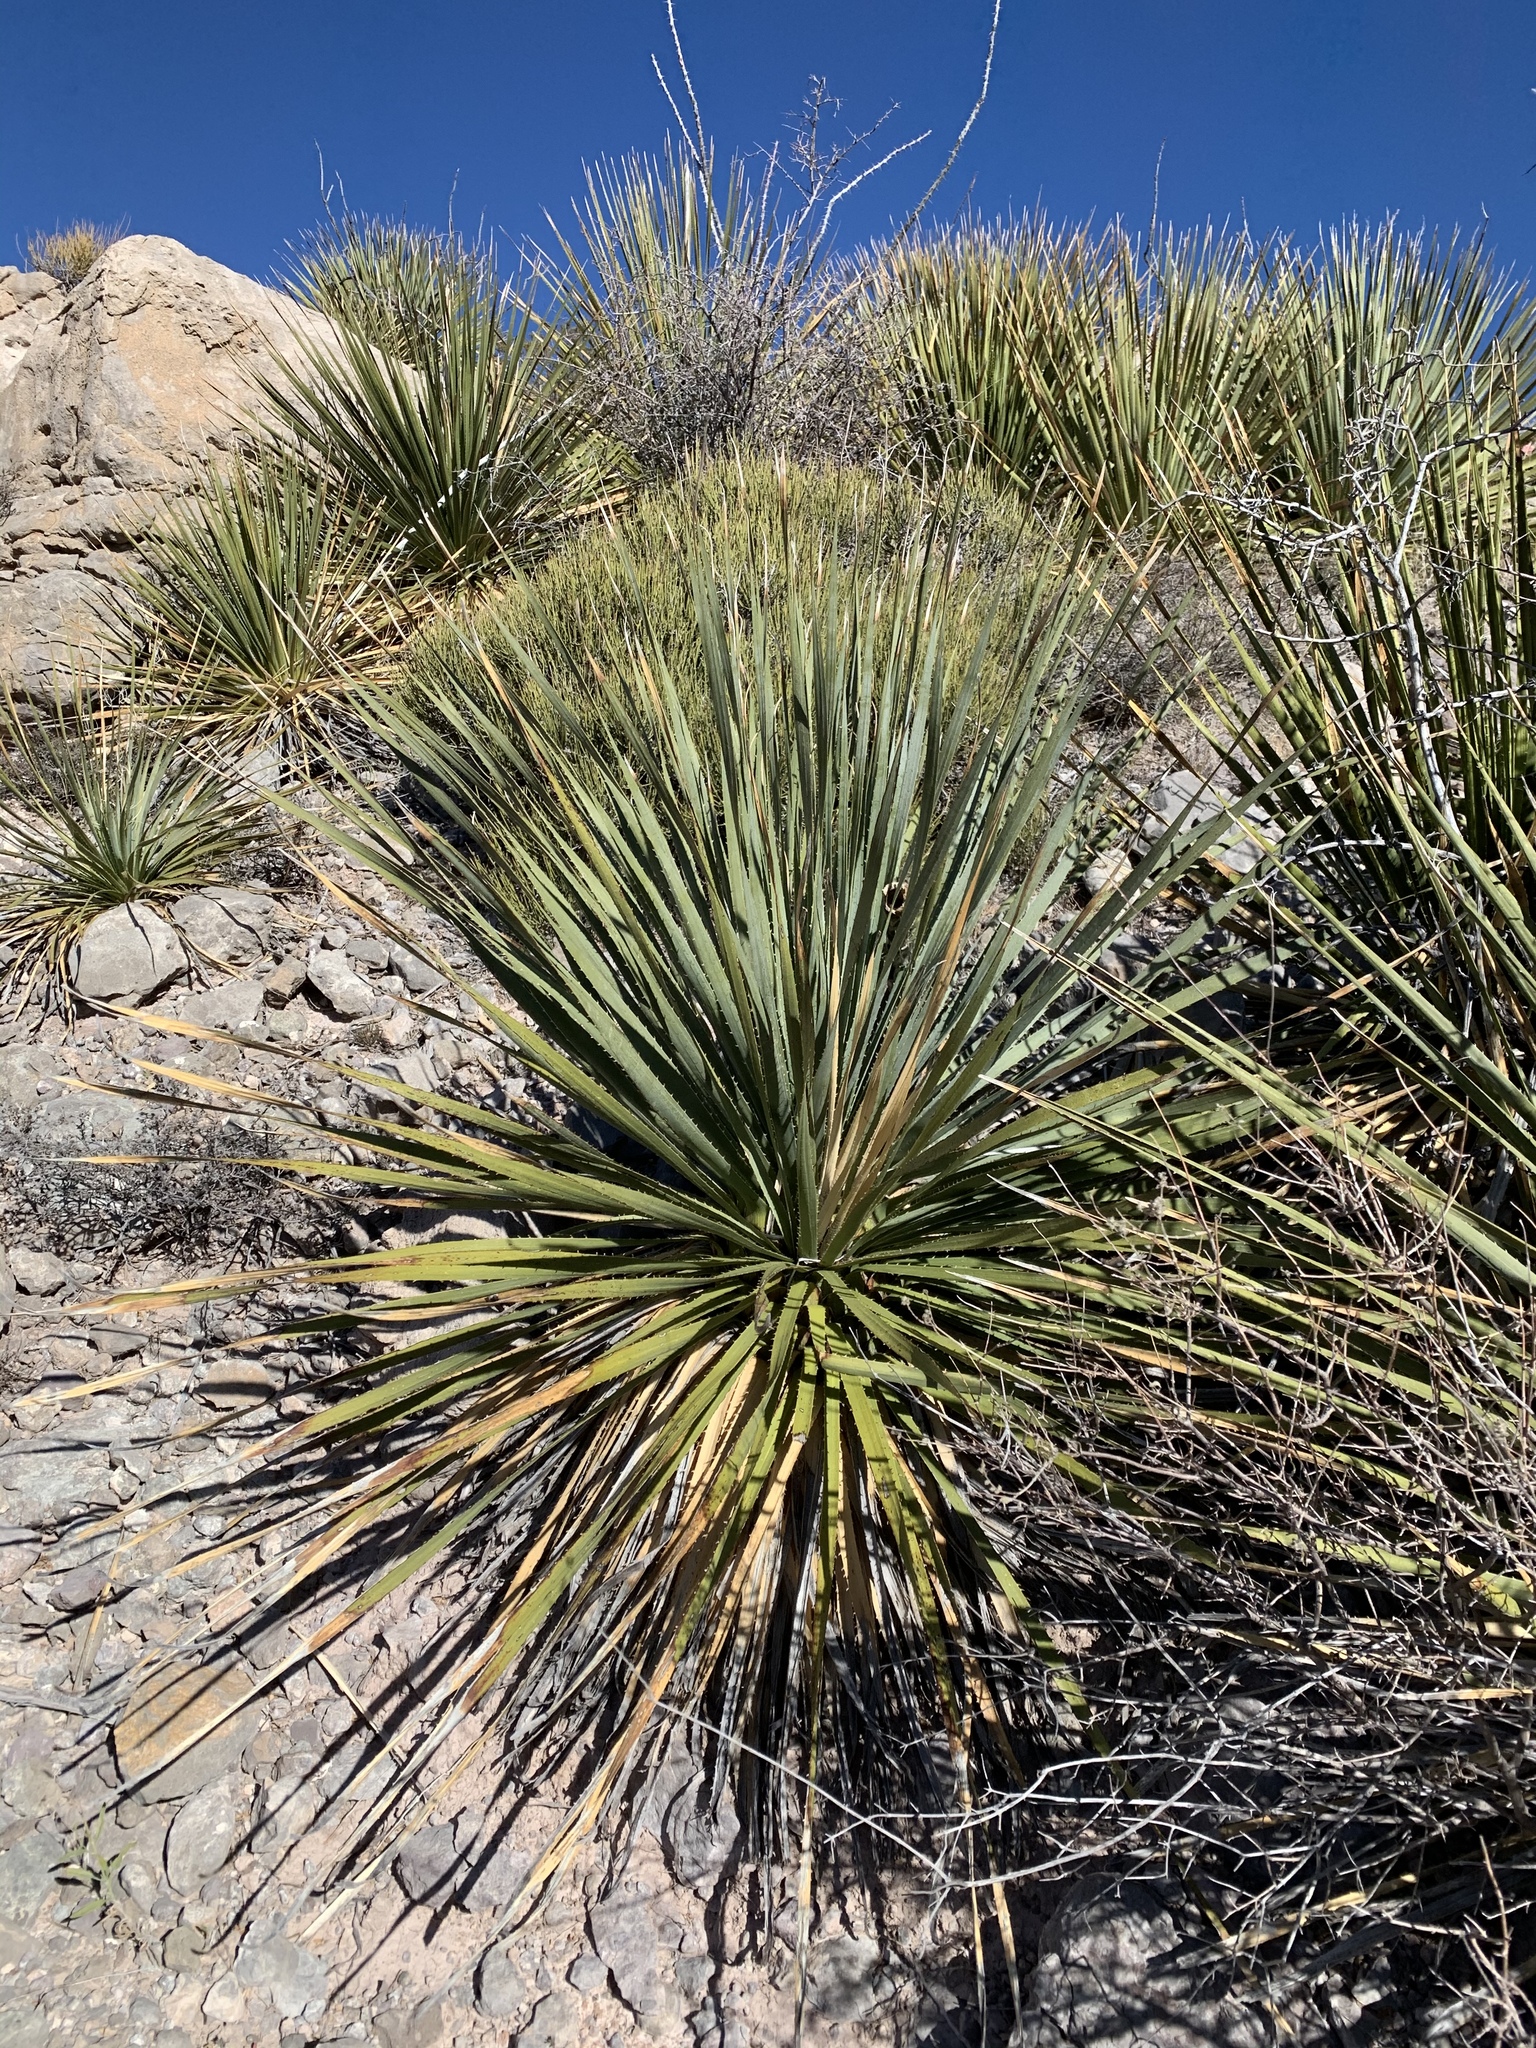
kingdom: Plantae
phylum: Tracheophyta
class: Liliopsida
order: Asparagales
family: Asparagaceae
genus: Dasylirion
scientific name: Dasylirion wheeleri
